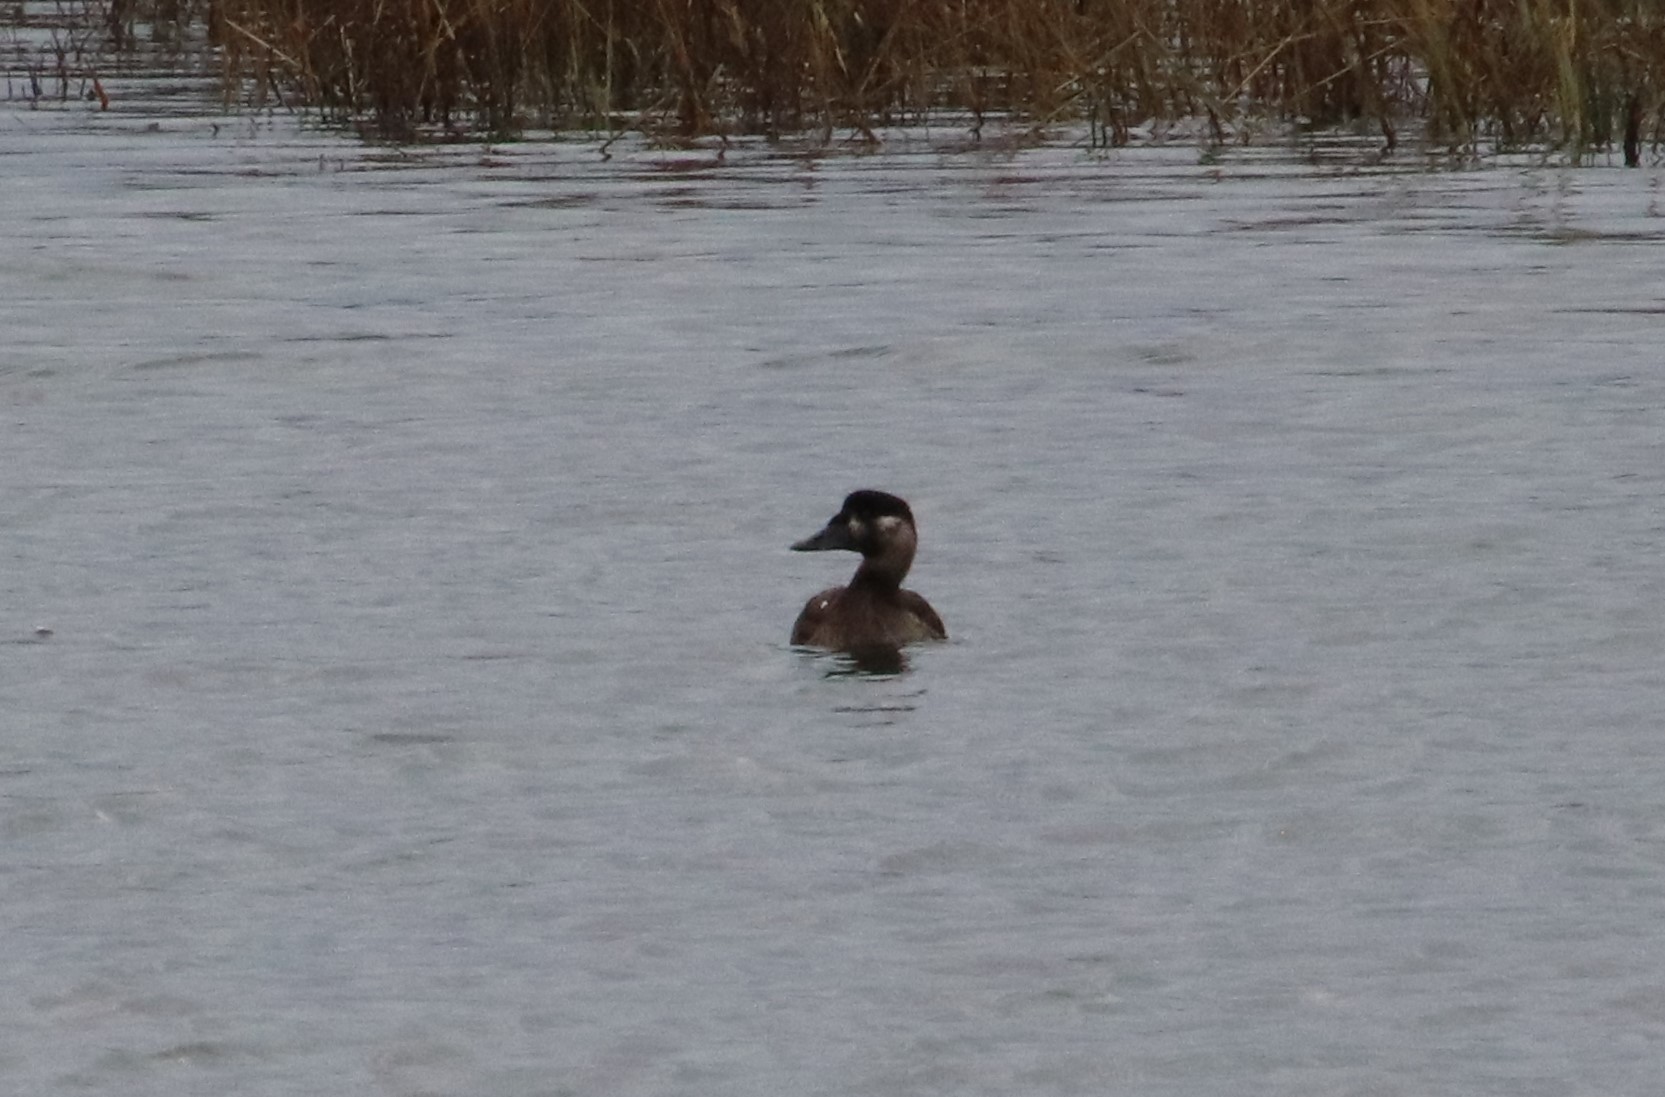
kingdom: Animalia
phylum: Chordata
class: Aves
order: Anseriformes
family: Anatidae
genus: Melanitta
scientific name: Melanitta perspicillata
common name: Surf scoter
